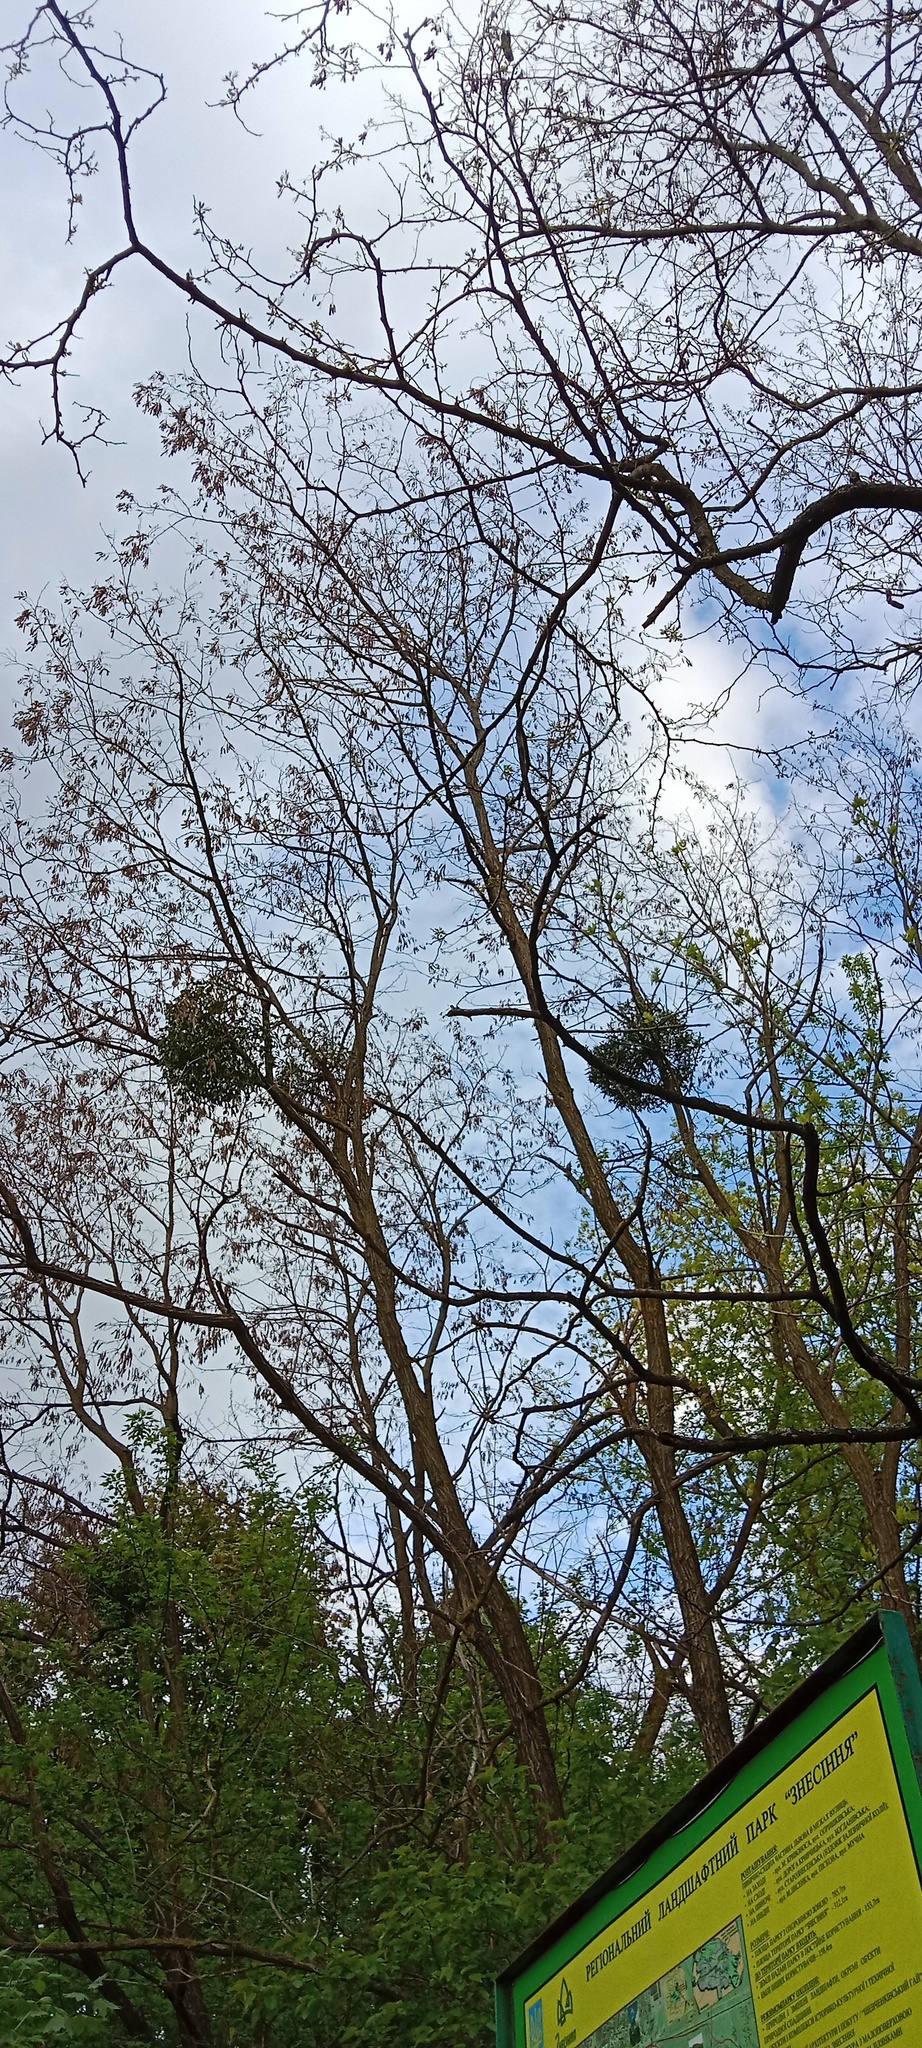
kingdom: Plantae
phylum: Tracheophyta
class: Magnoliopsida
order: Santalales
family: Viscaceae
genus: Viscum
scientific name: Viscum album
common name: Mistletoe
